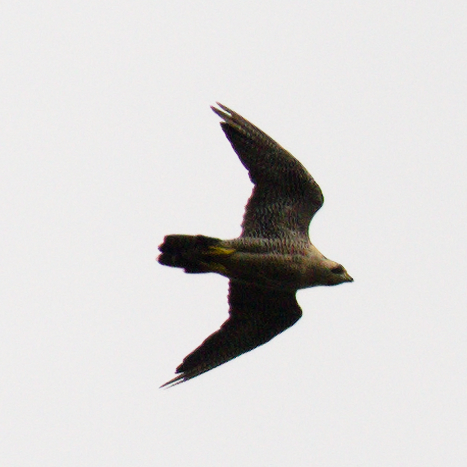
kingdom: Animalia
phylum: Chordata
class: Aves
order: Falconiformes
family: Falconidae
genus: Falco
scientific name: Falco peregrinus
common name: Peregrine falcon
